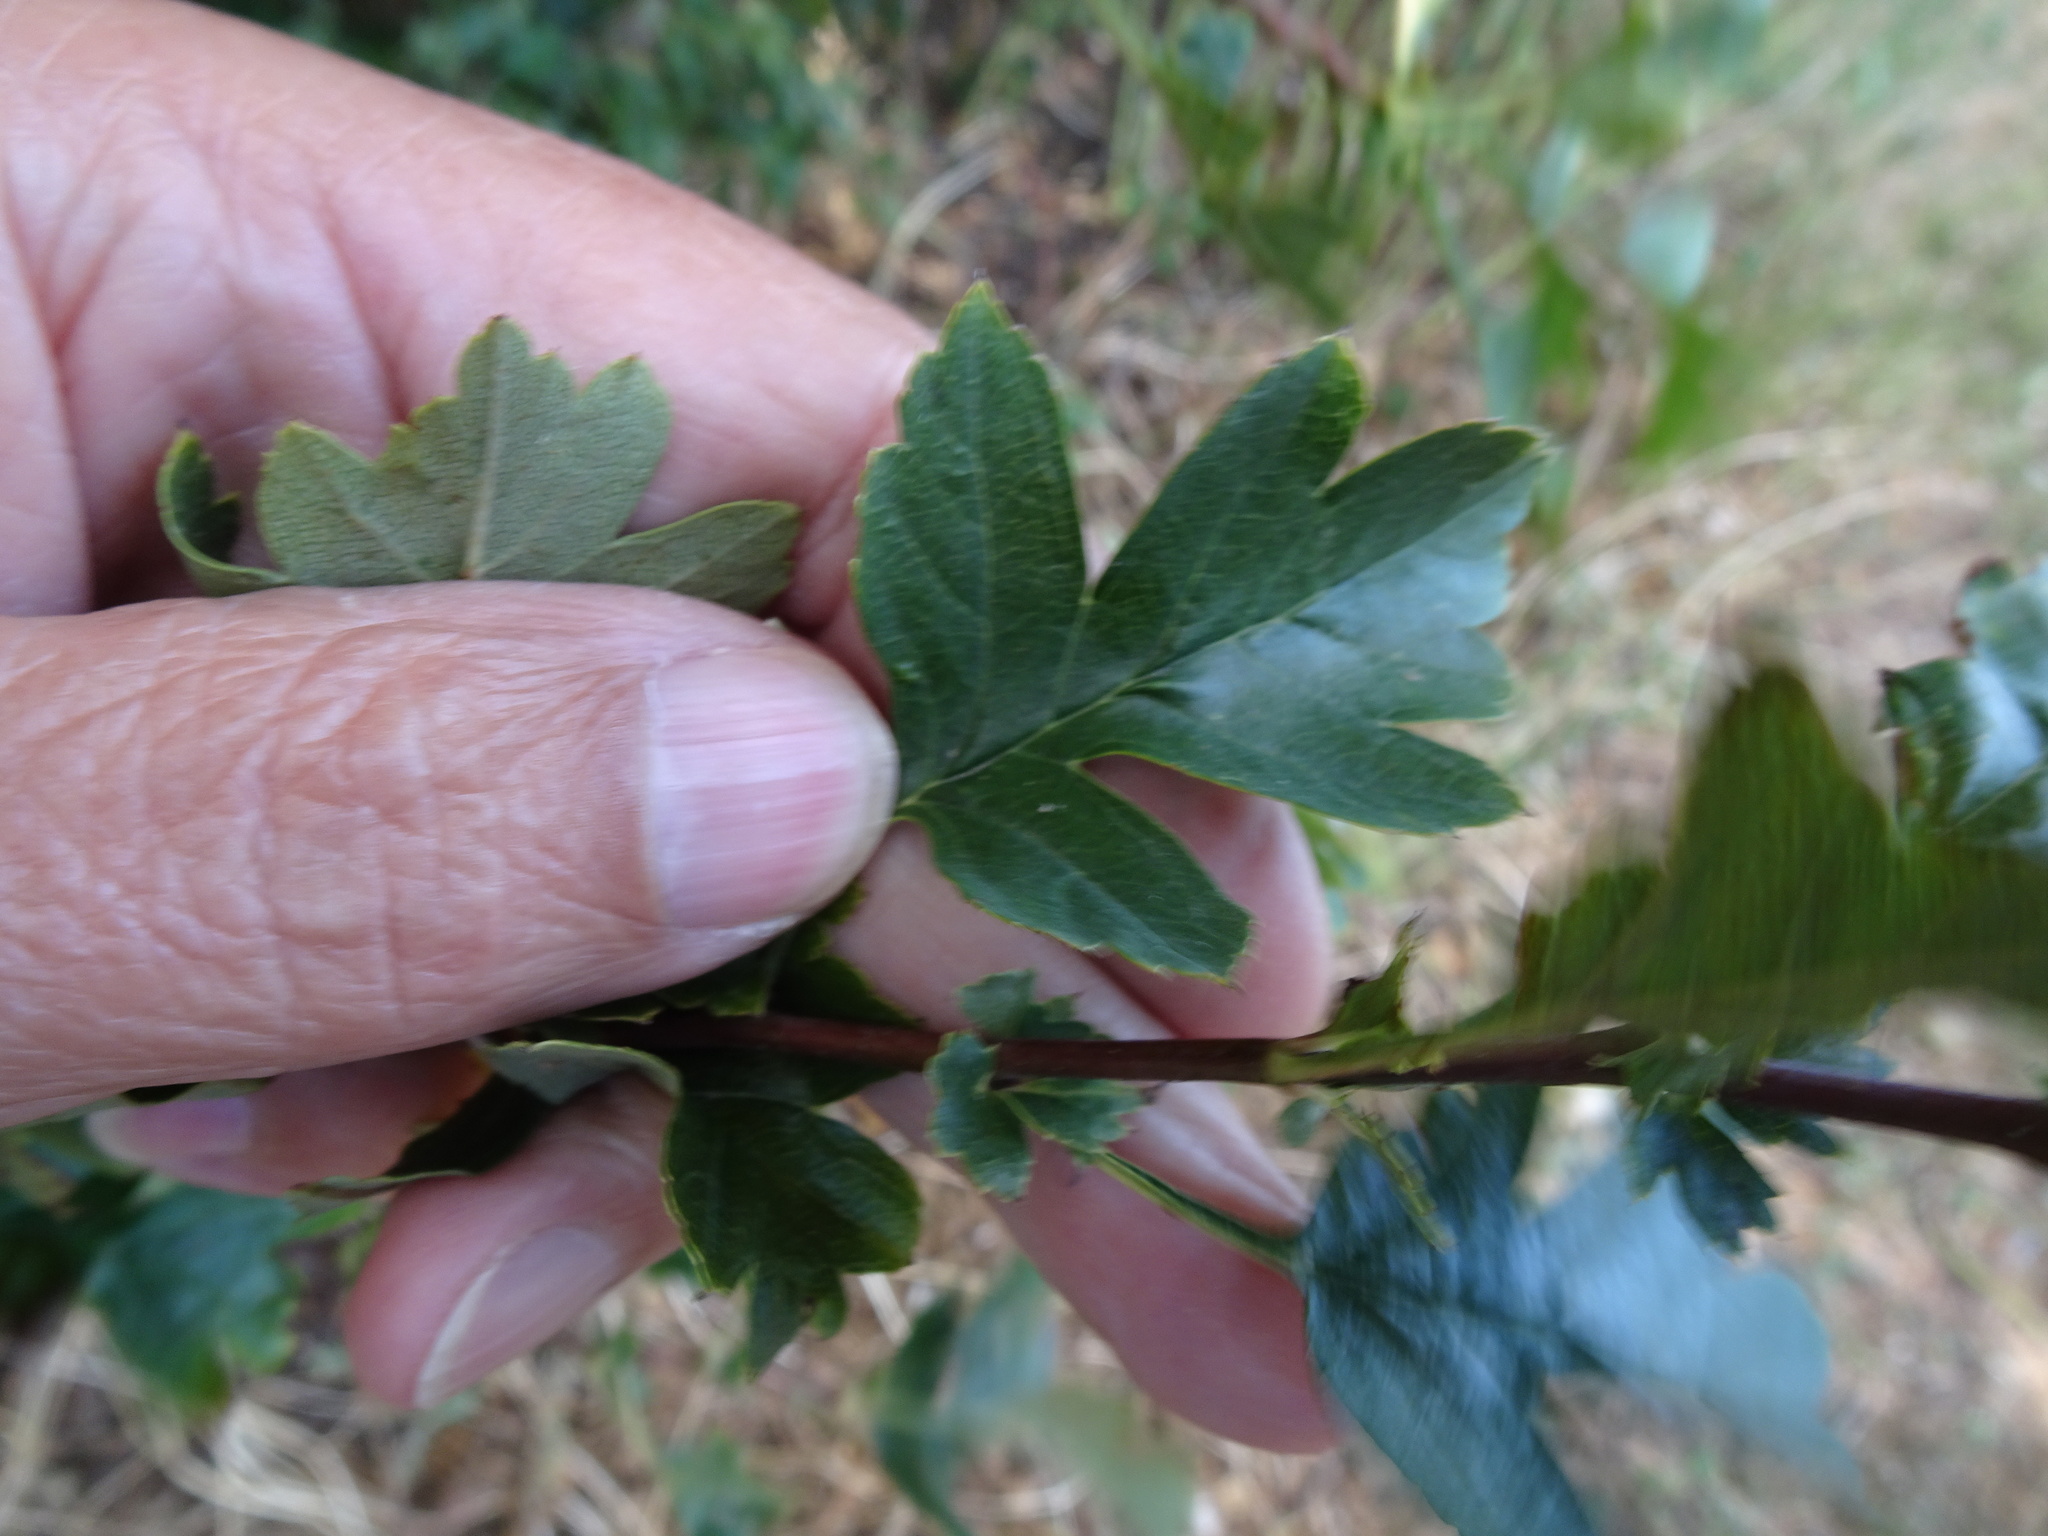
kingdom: Plantae
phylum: Tracheophyta
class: Magnoliopsida
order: Rosales
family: Rosaceae
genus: Crataegus
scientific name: Crataegus monogyna
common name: Hawthorn
